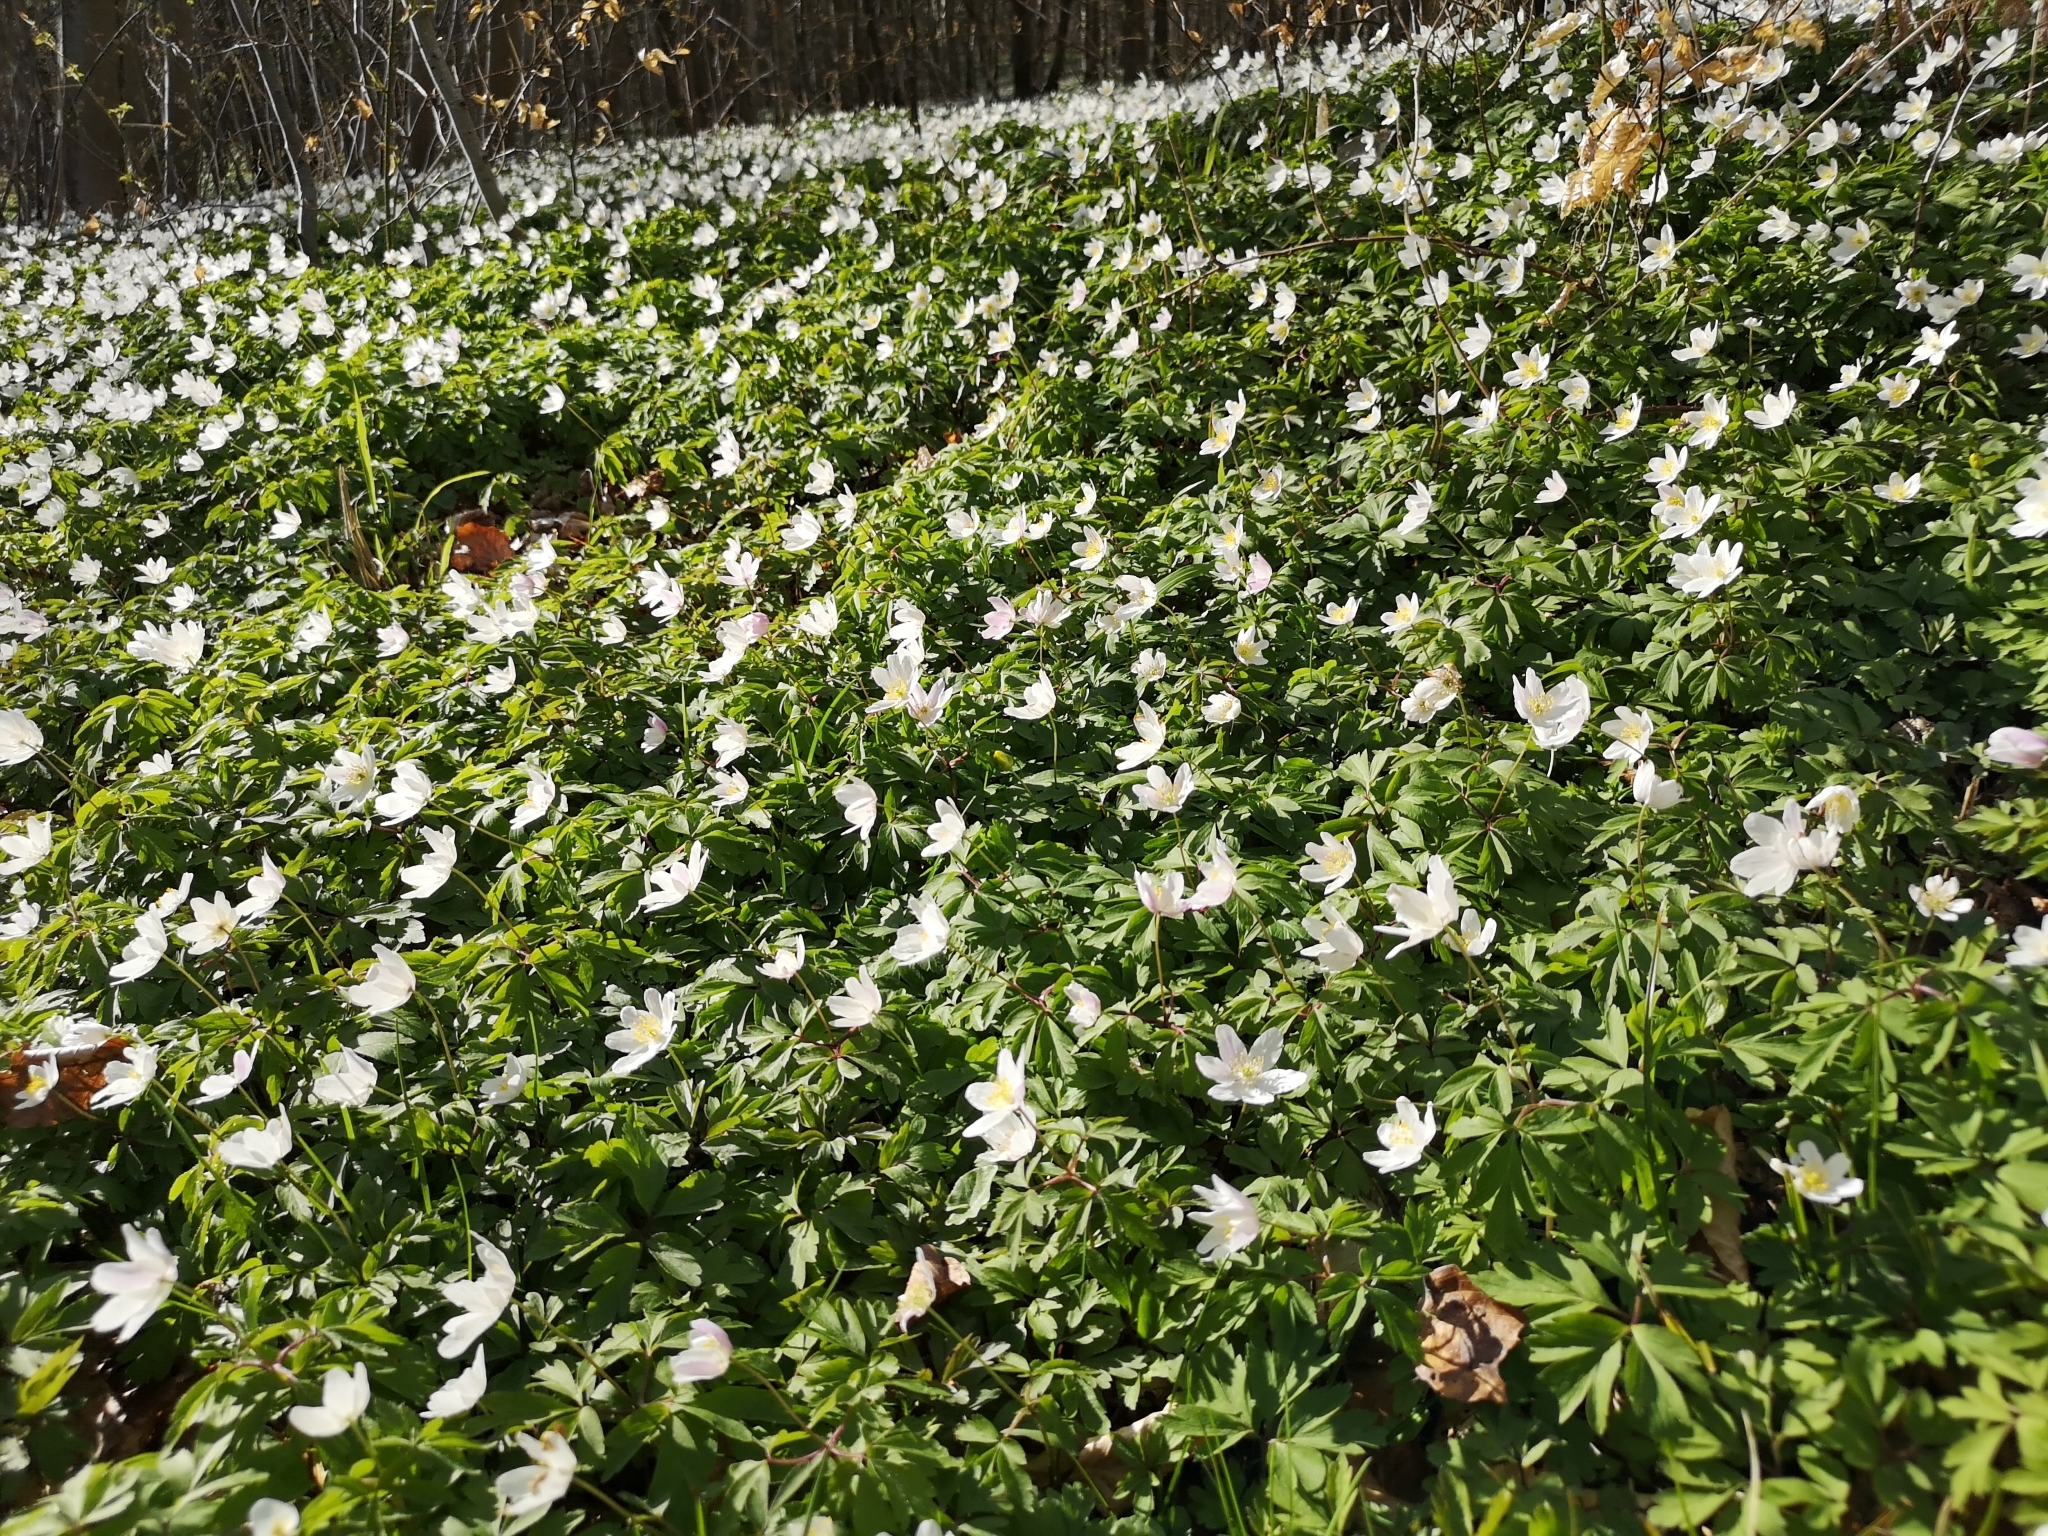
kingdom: Plantae
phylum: Tracheophyta
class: Magnoliopsida
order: Ranunculales
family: Ranunculaceae
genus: Anemone
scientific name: Anemone nemorosa
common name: Wood anemone
